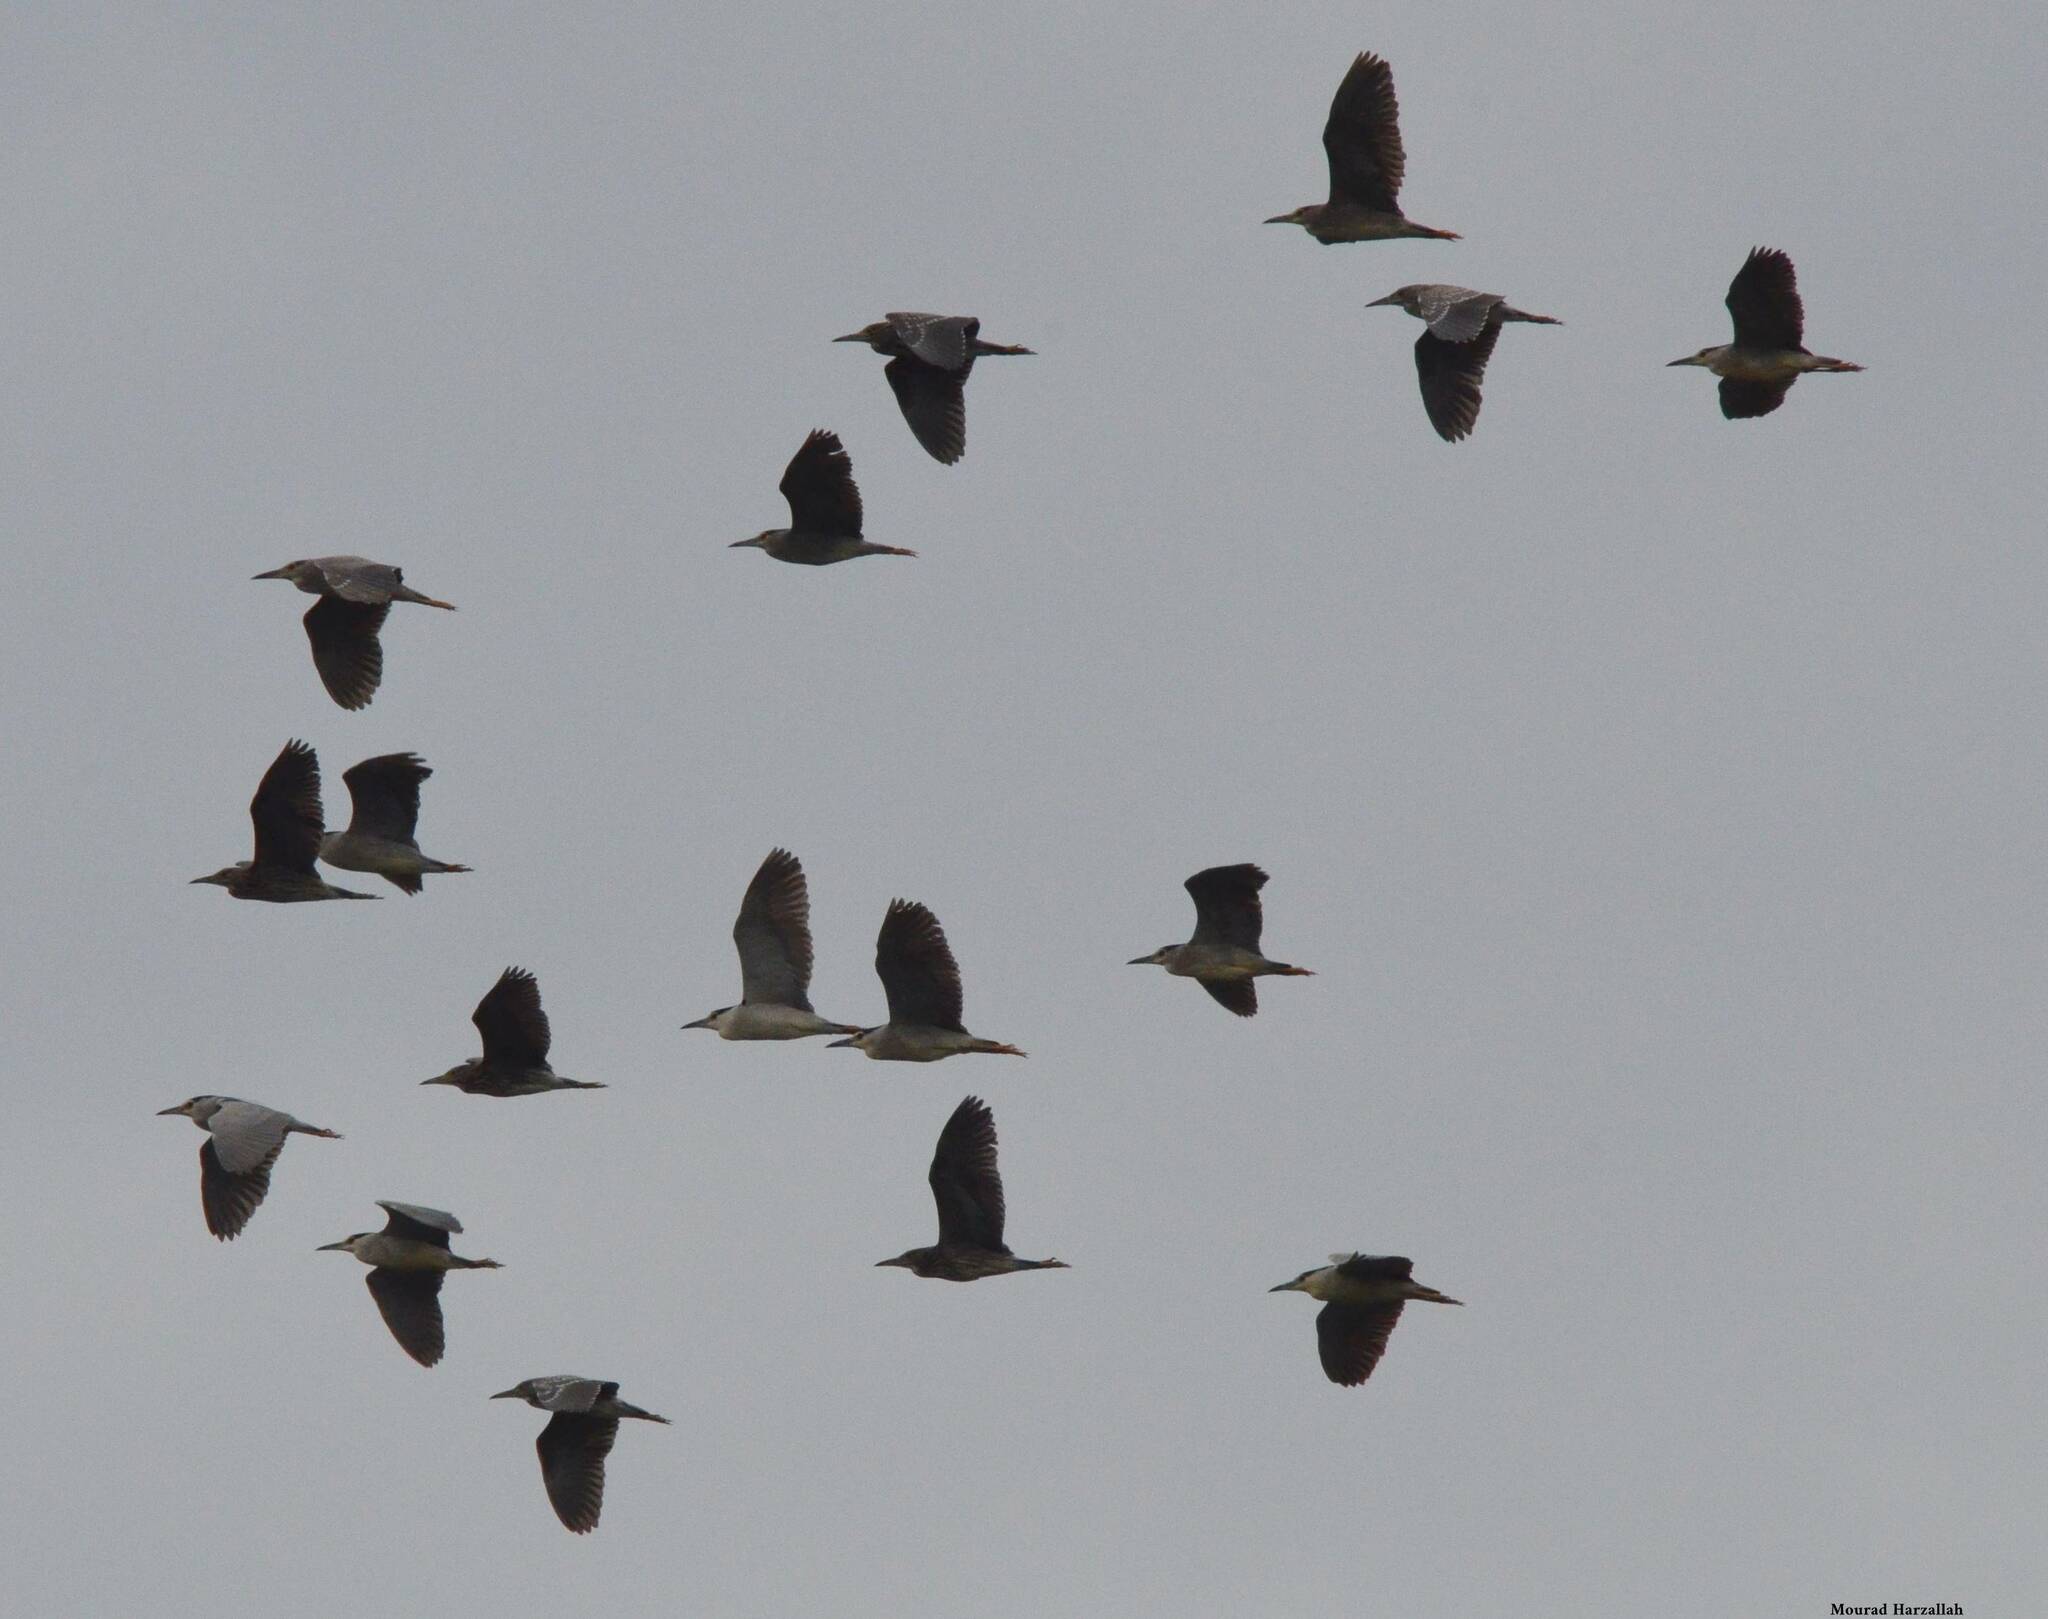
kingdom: Animalia
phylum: Chordata
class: Aves
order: Pelecaniformes
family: Ardeidae
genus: Nycticorax
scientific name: Nycticorax nycticorax
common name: Black-crowned night heron
